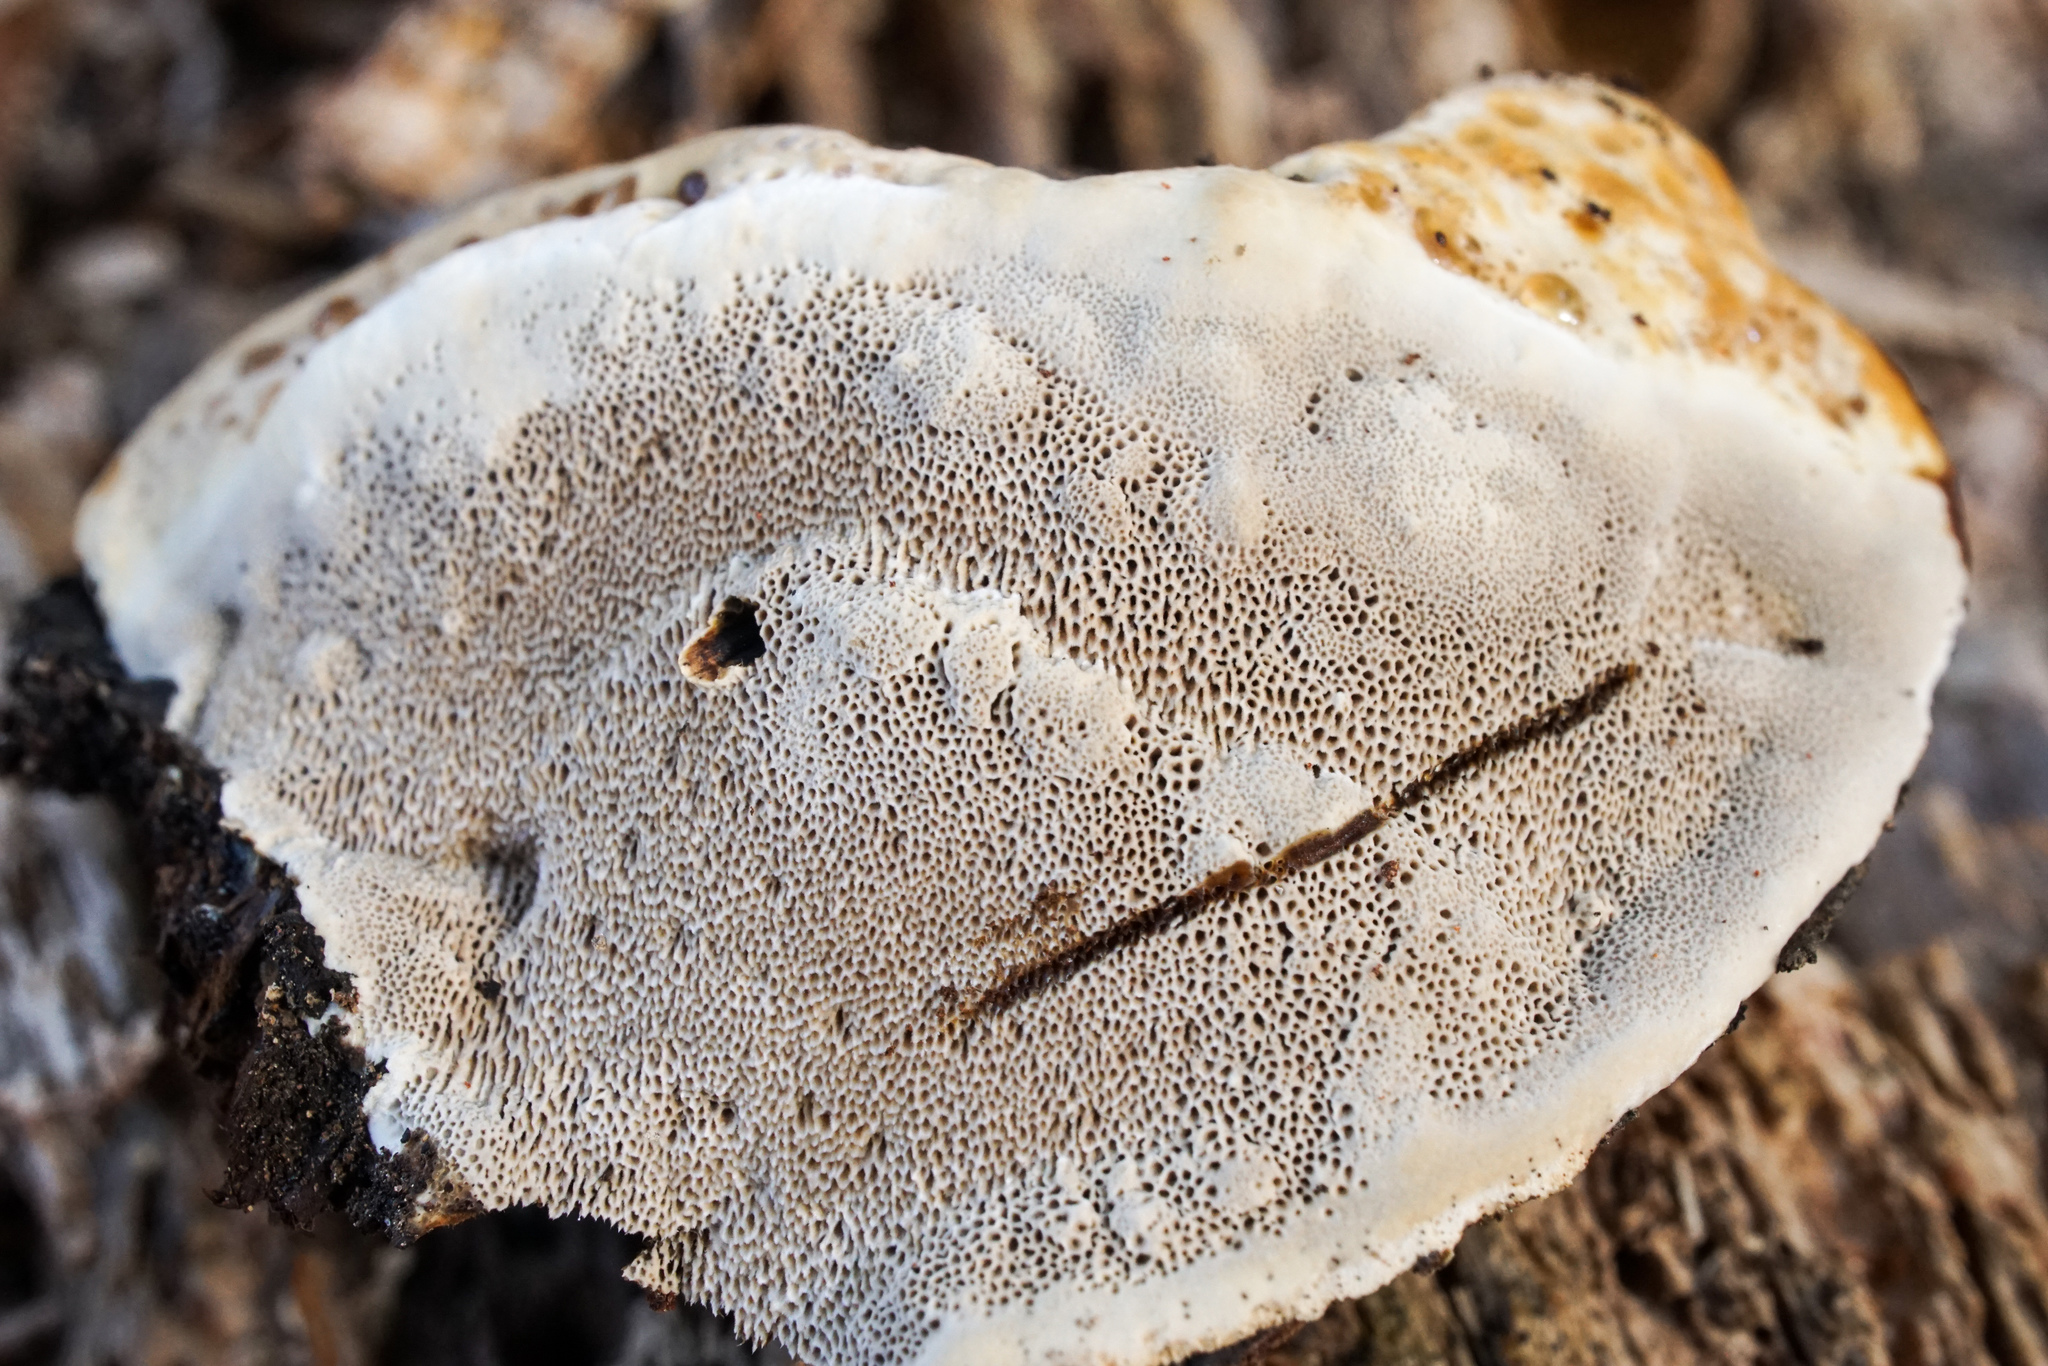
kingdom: Fungi
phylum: Basidiomycota
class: Agaricomycetes
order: Hymenochaetales
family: Hymenochaetaceae
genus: Pseudoinonotus
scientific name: Pseudoinonotus dryadeus
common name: Oak bracket
